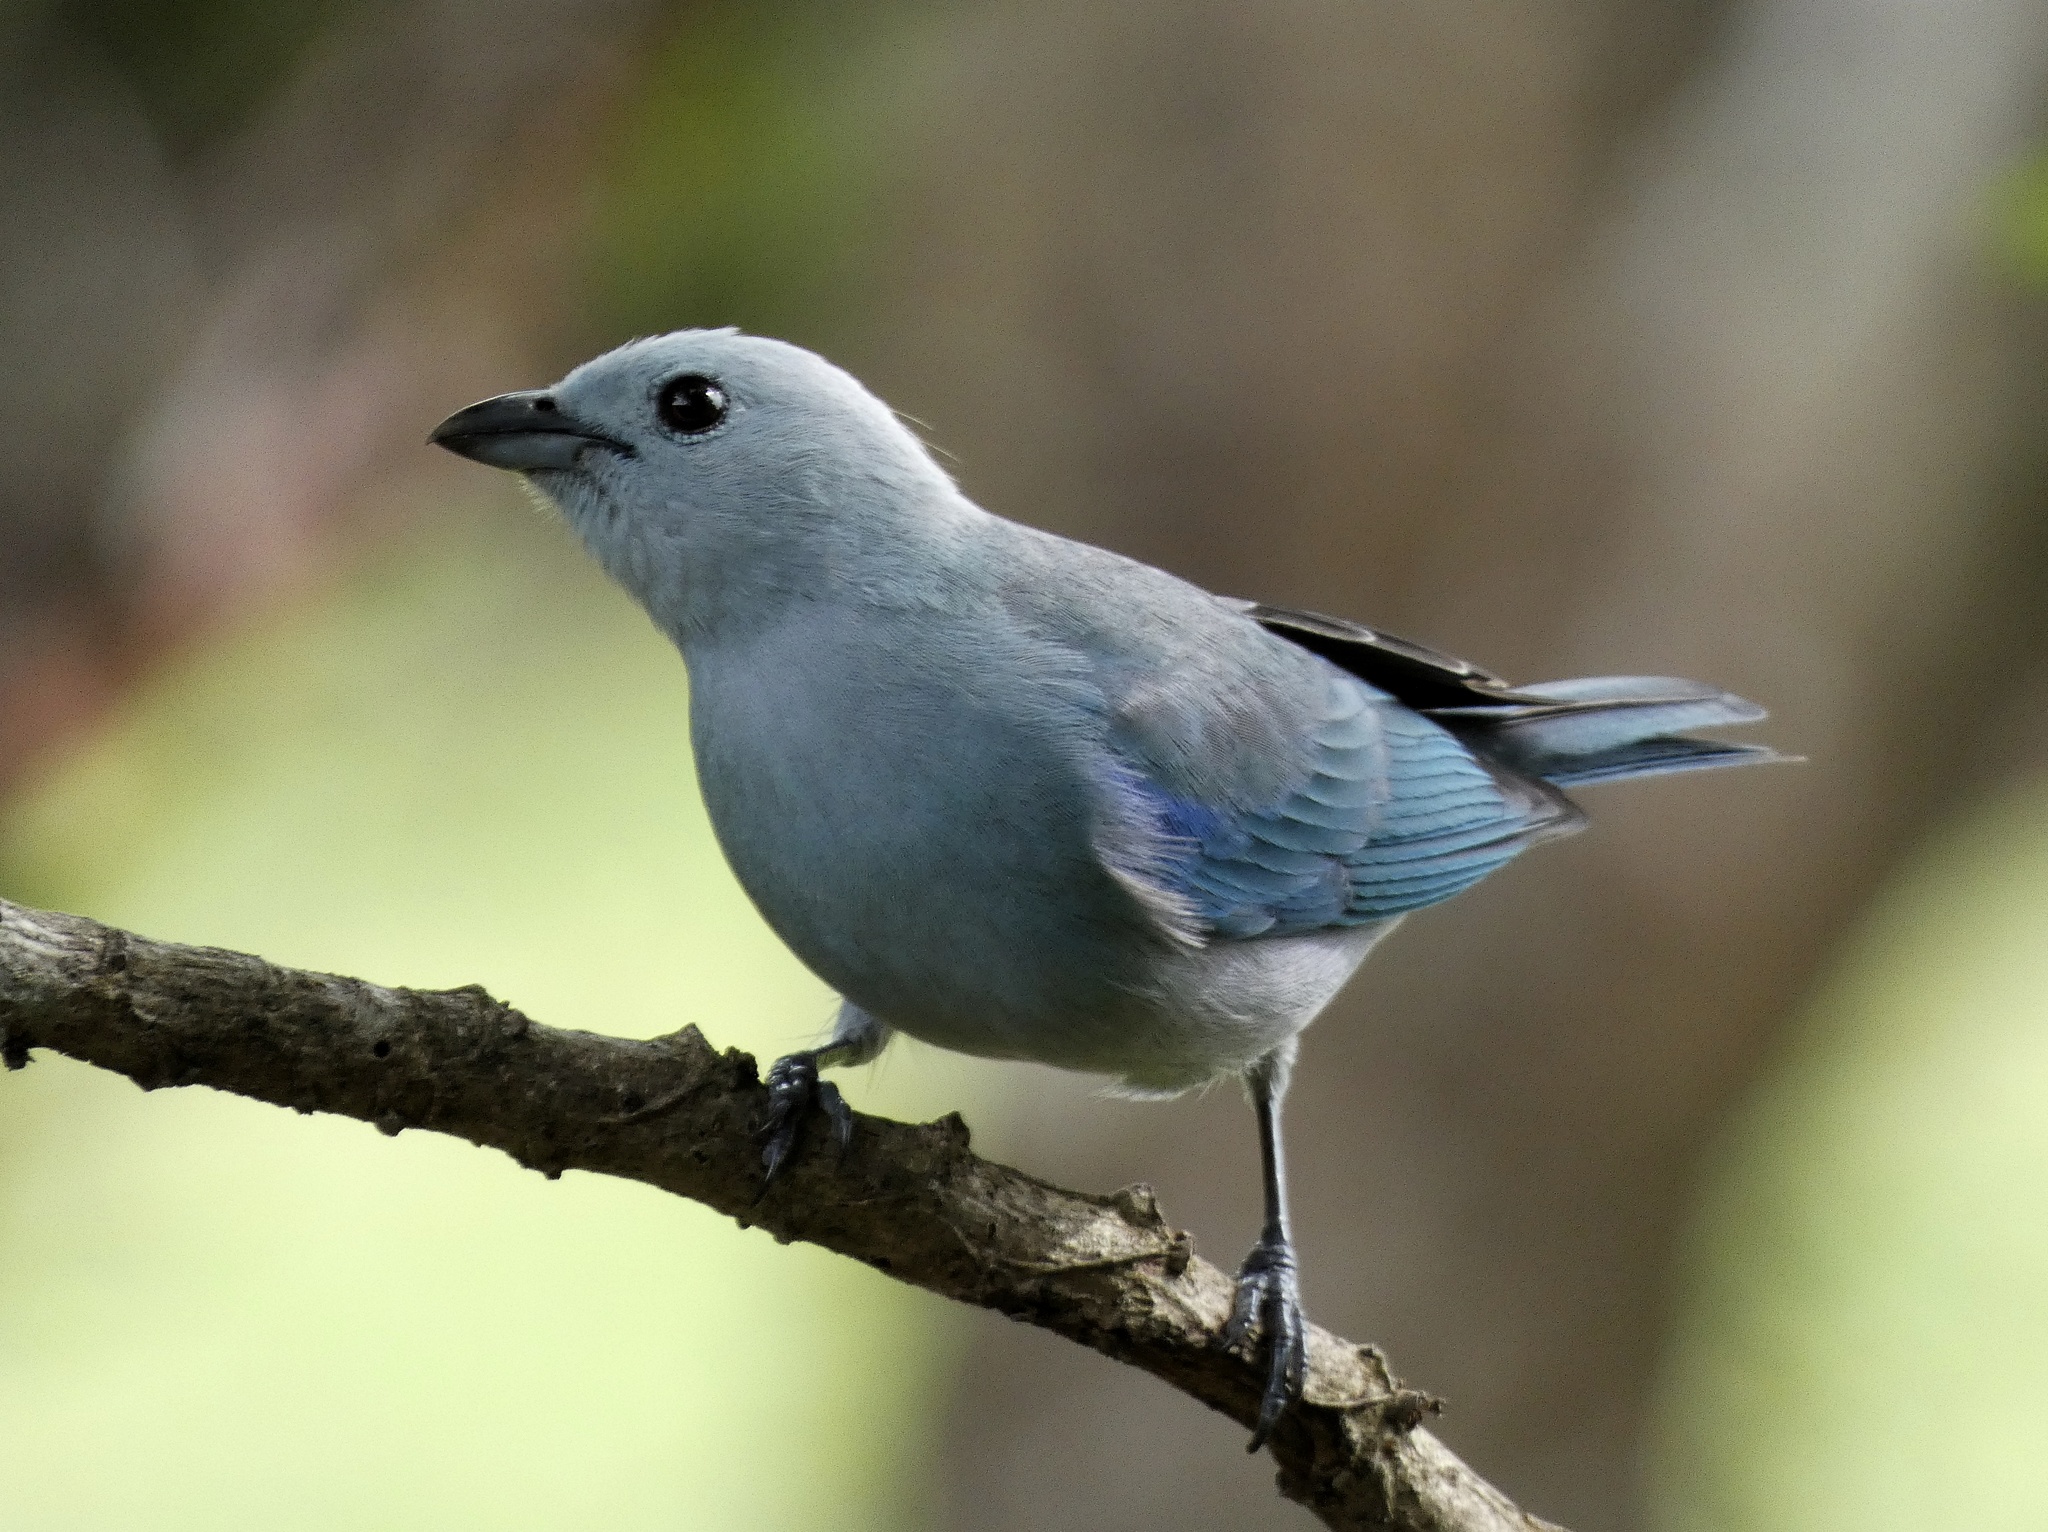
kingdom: Animalia
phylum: Chordata
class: Aves
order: Passeriformes
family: Thraupidae
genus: Thraupis
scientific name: Thraupis episcopus
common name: Blue-grey tanager
